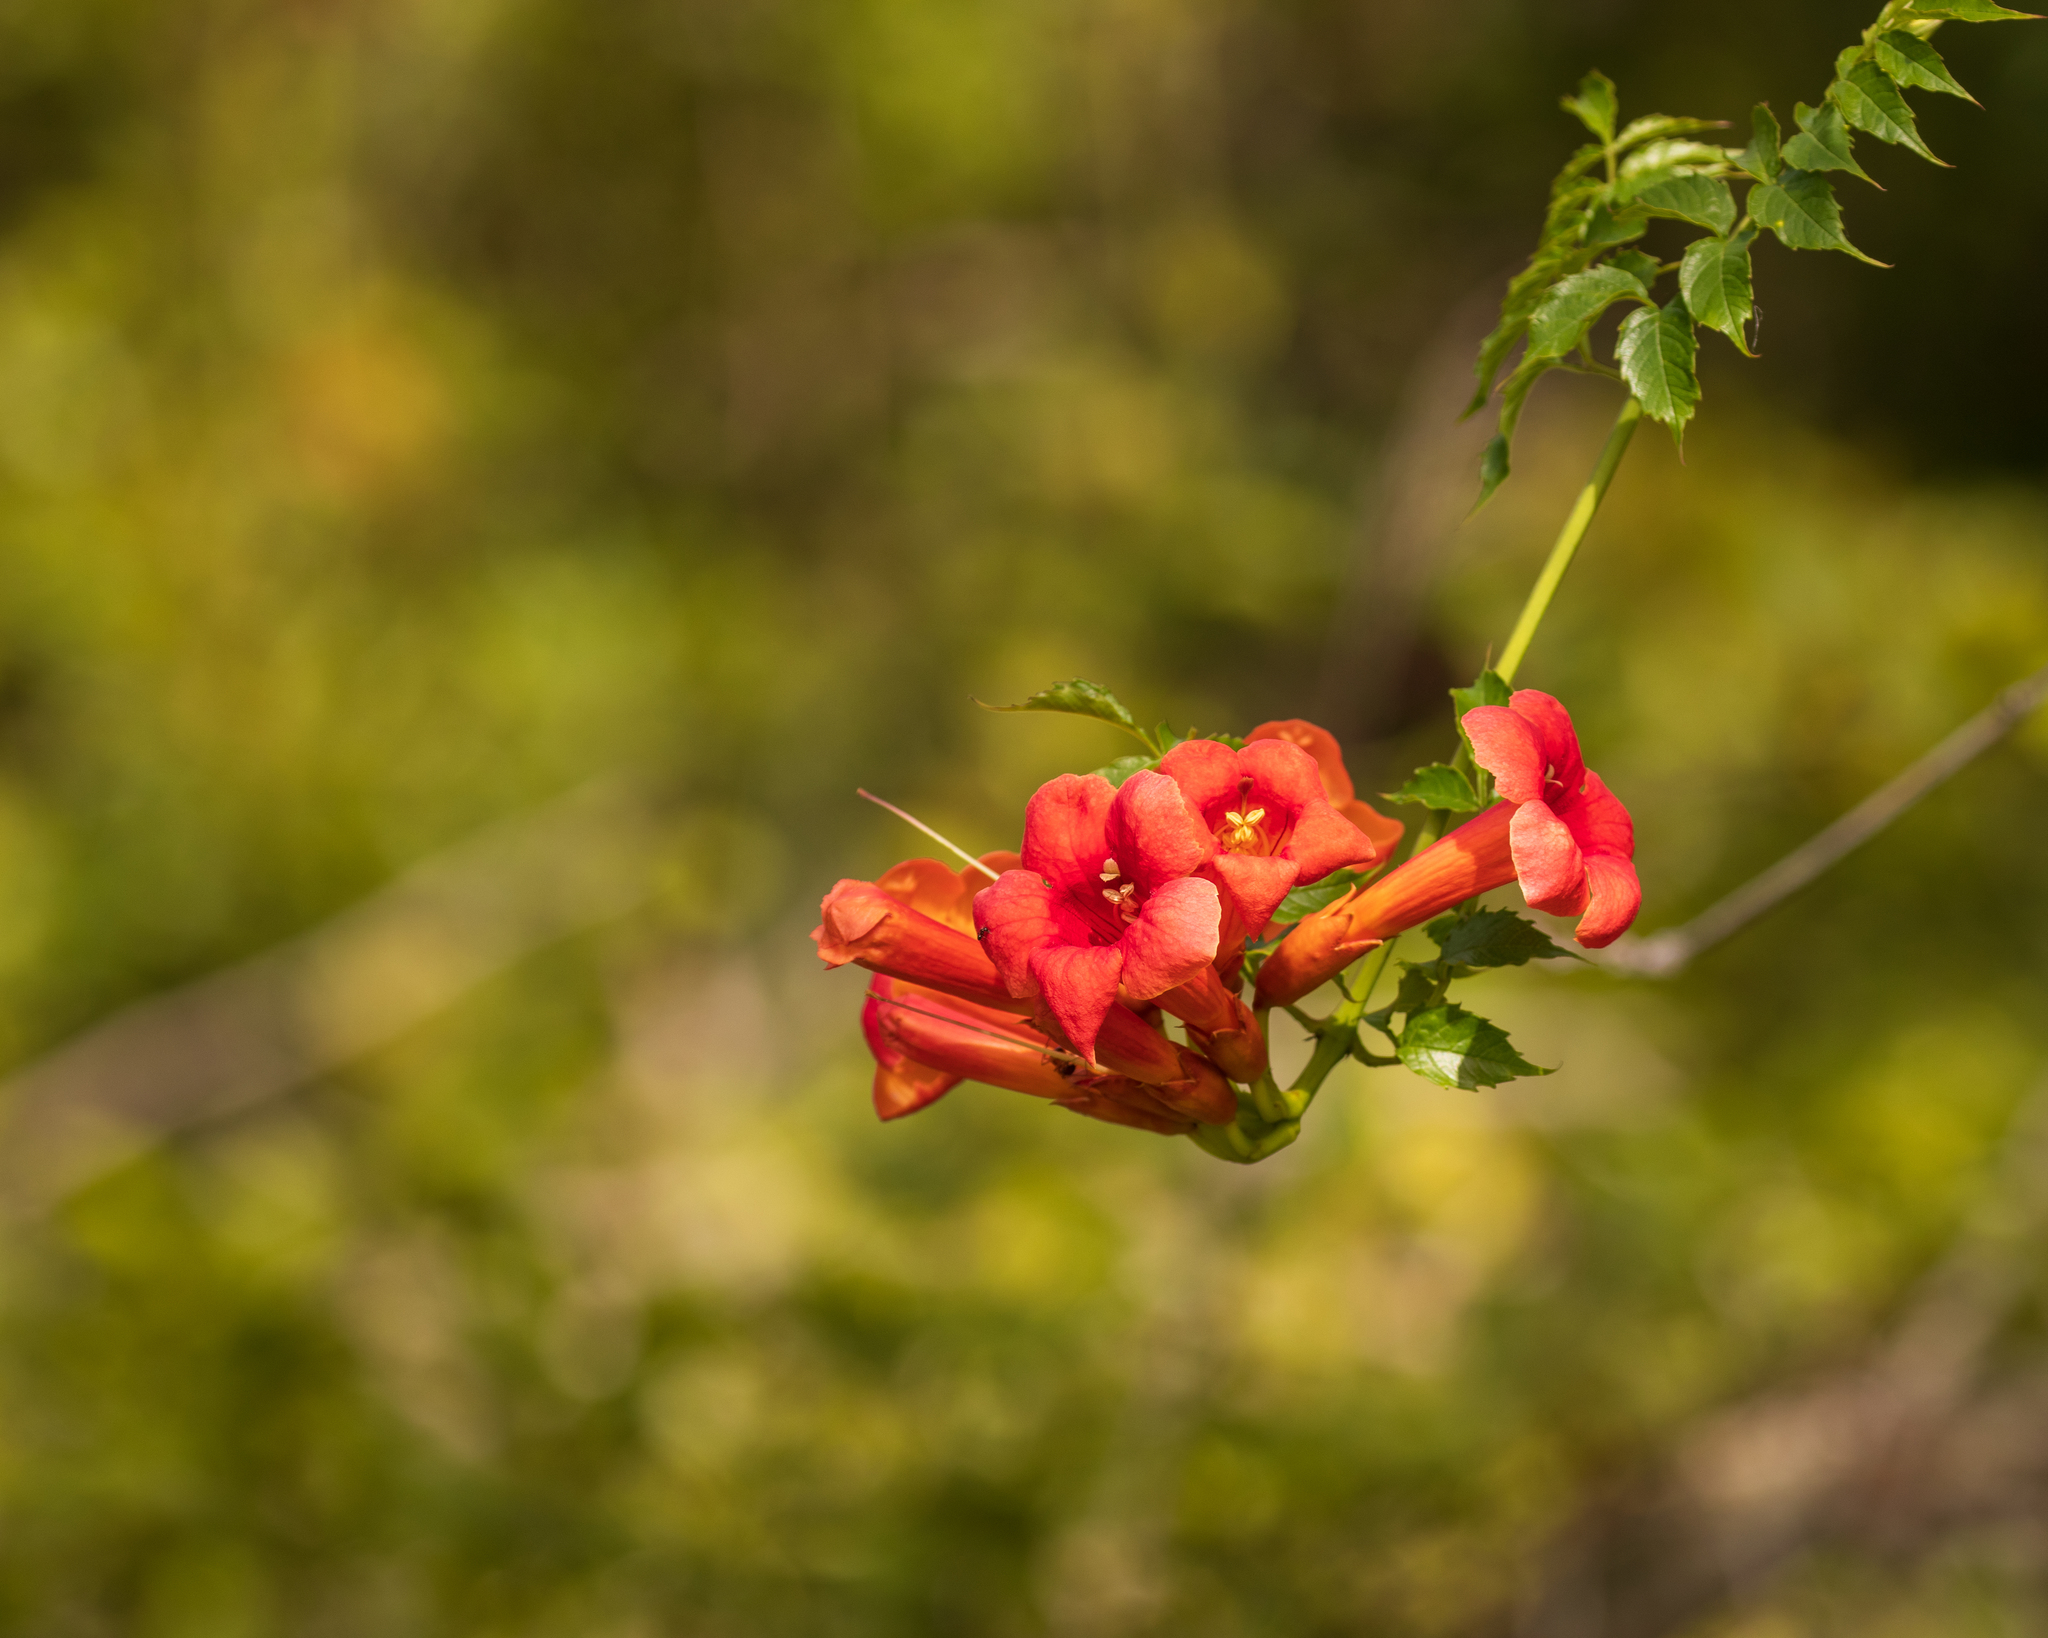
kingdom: Plantae
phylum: Tracheophyta
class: Magnoliopsida
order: Lamiales
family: Bignoniaceae
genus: Campsis
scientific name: Campsis radicans
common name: Trumpet-creeper
